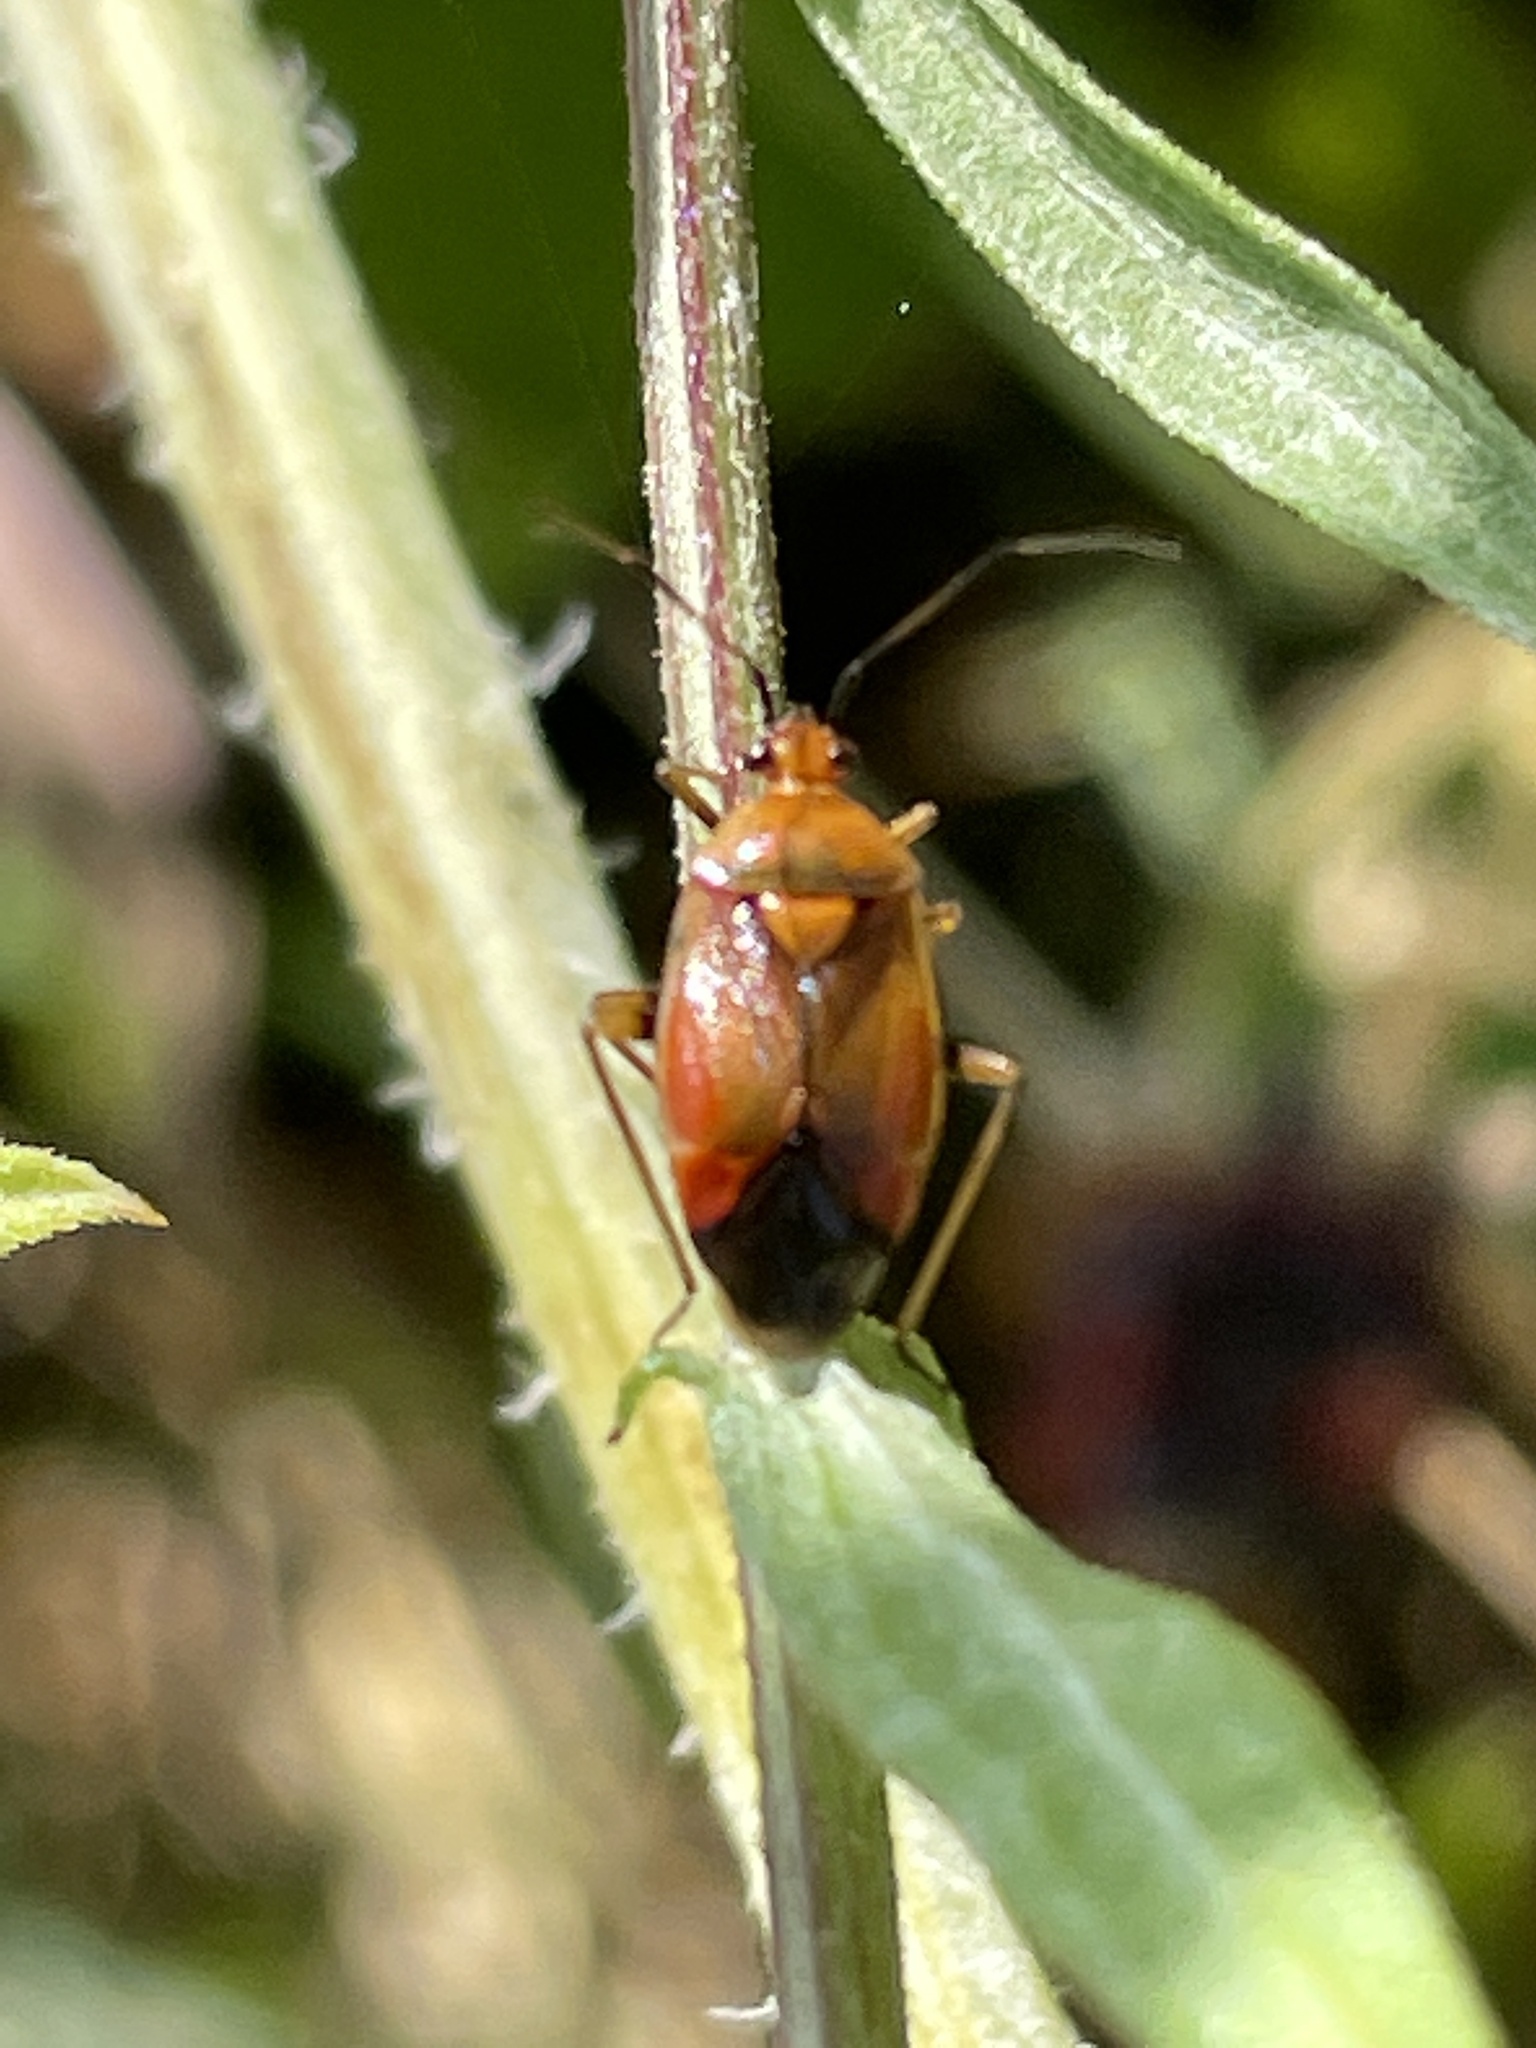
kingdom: Animalia
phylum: Arthropoda
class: Insecta
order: Hemiptera
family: Miridae
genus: Deraeocoris
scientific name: Deraeocoris ruber
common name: Plant bug
